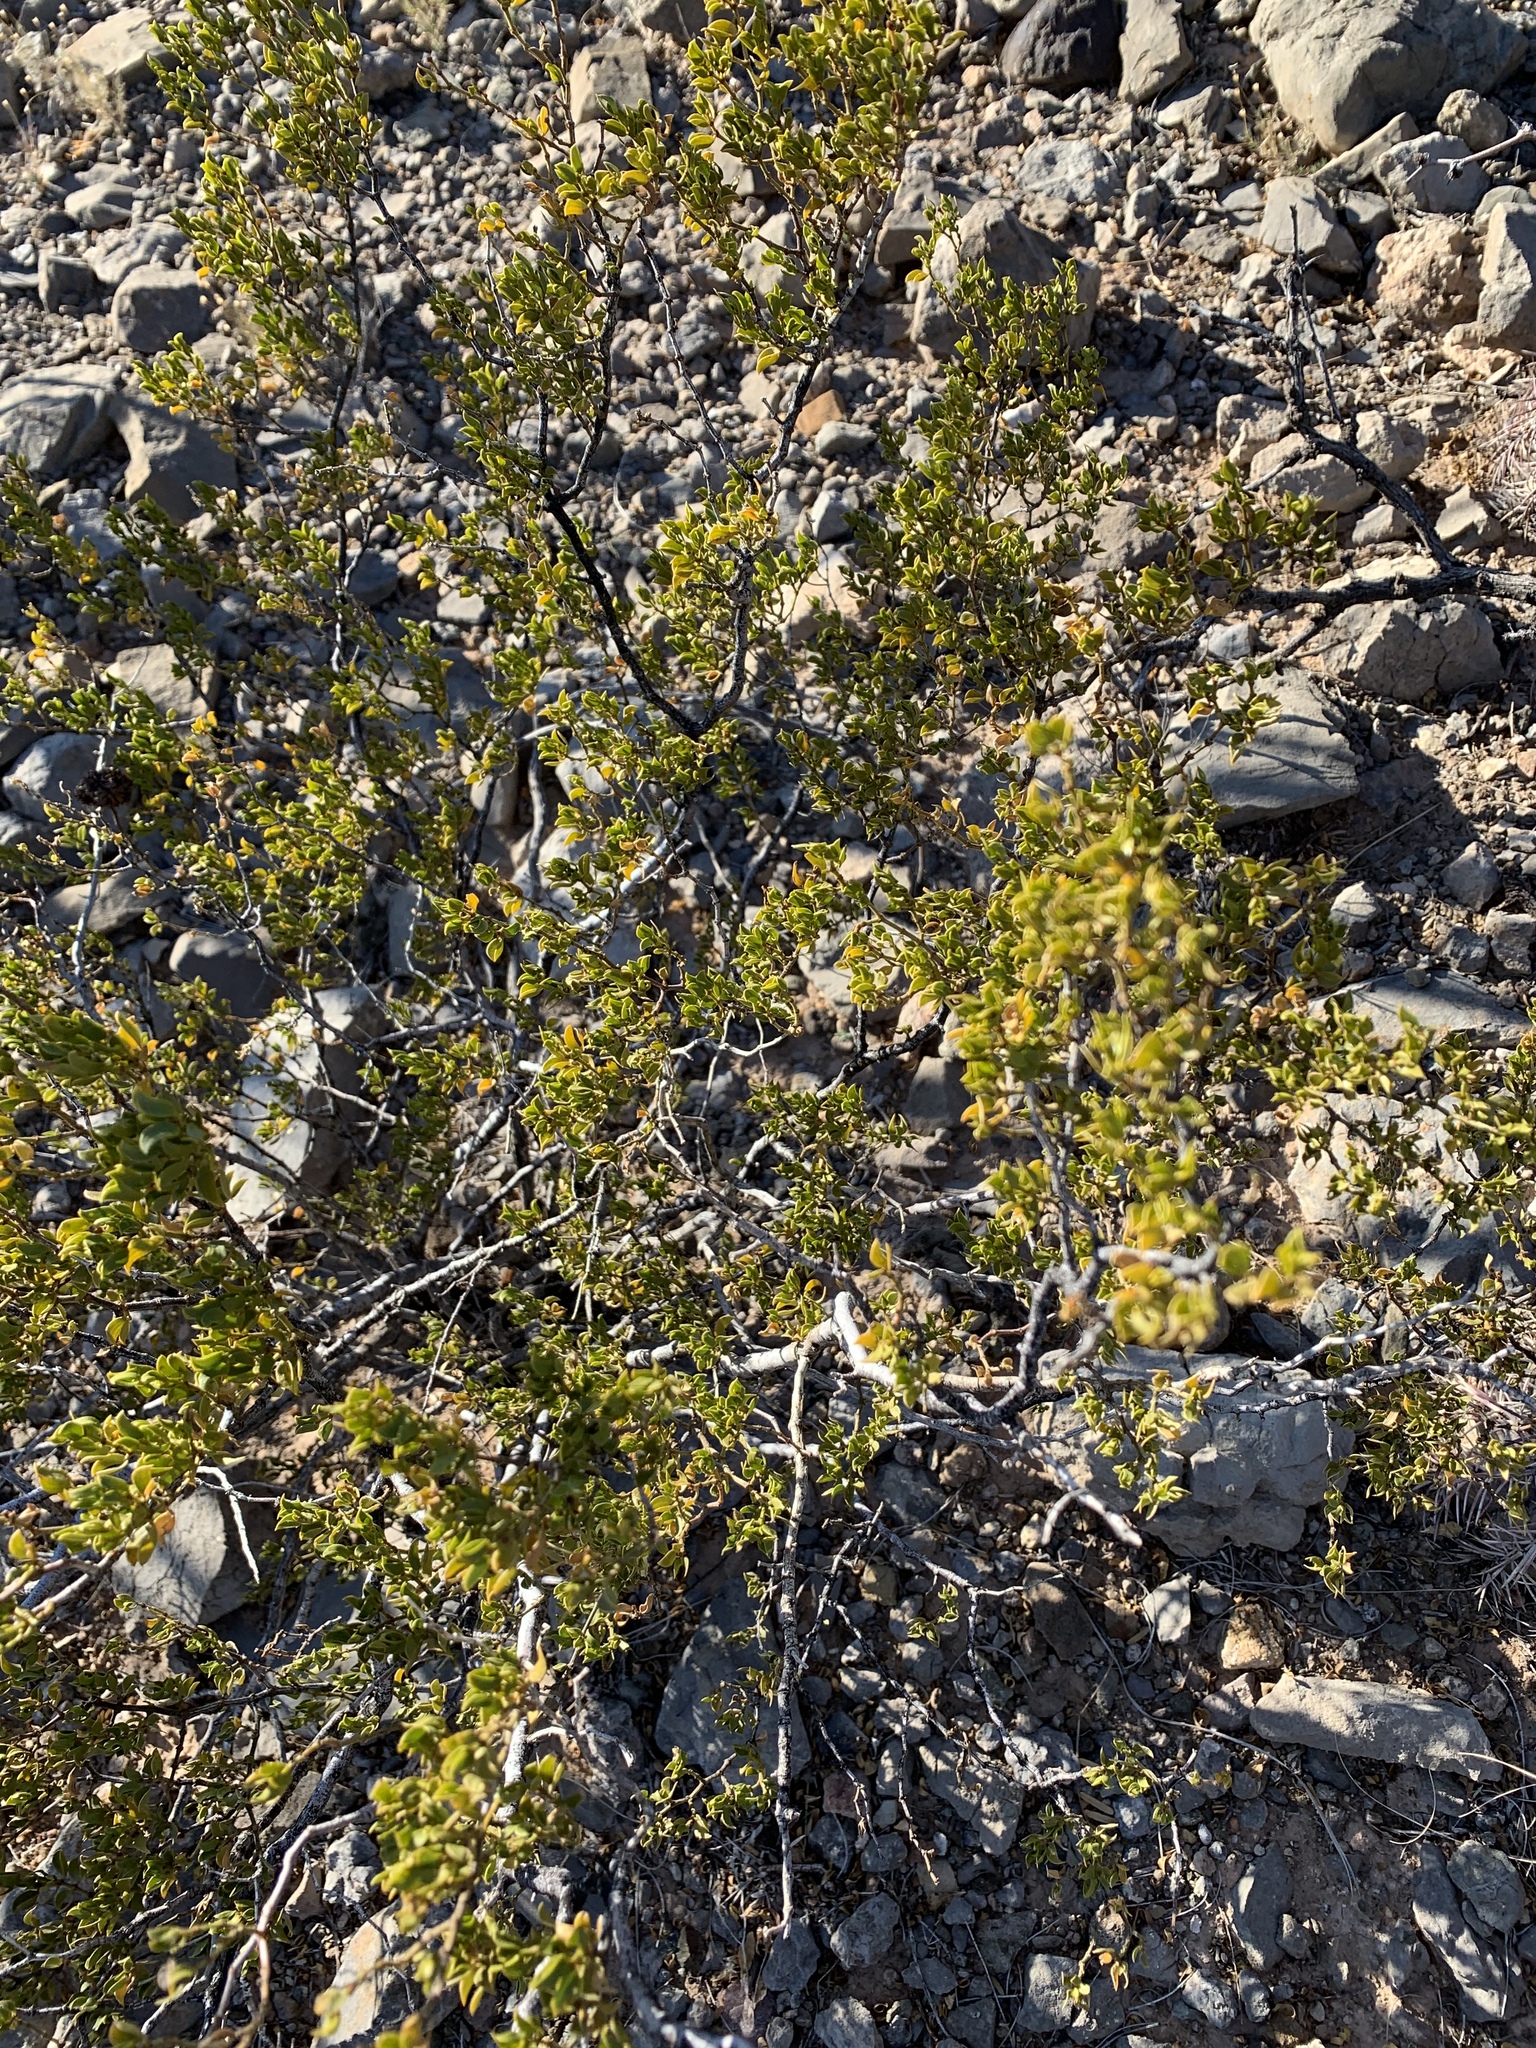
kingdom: Plantae
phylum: Tracheophyta
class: Magnoliopsida
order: Zygophyllales
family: Zygophyllaceae
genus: Larrea
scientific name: Larrea tridentata
